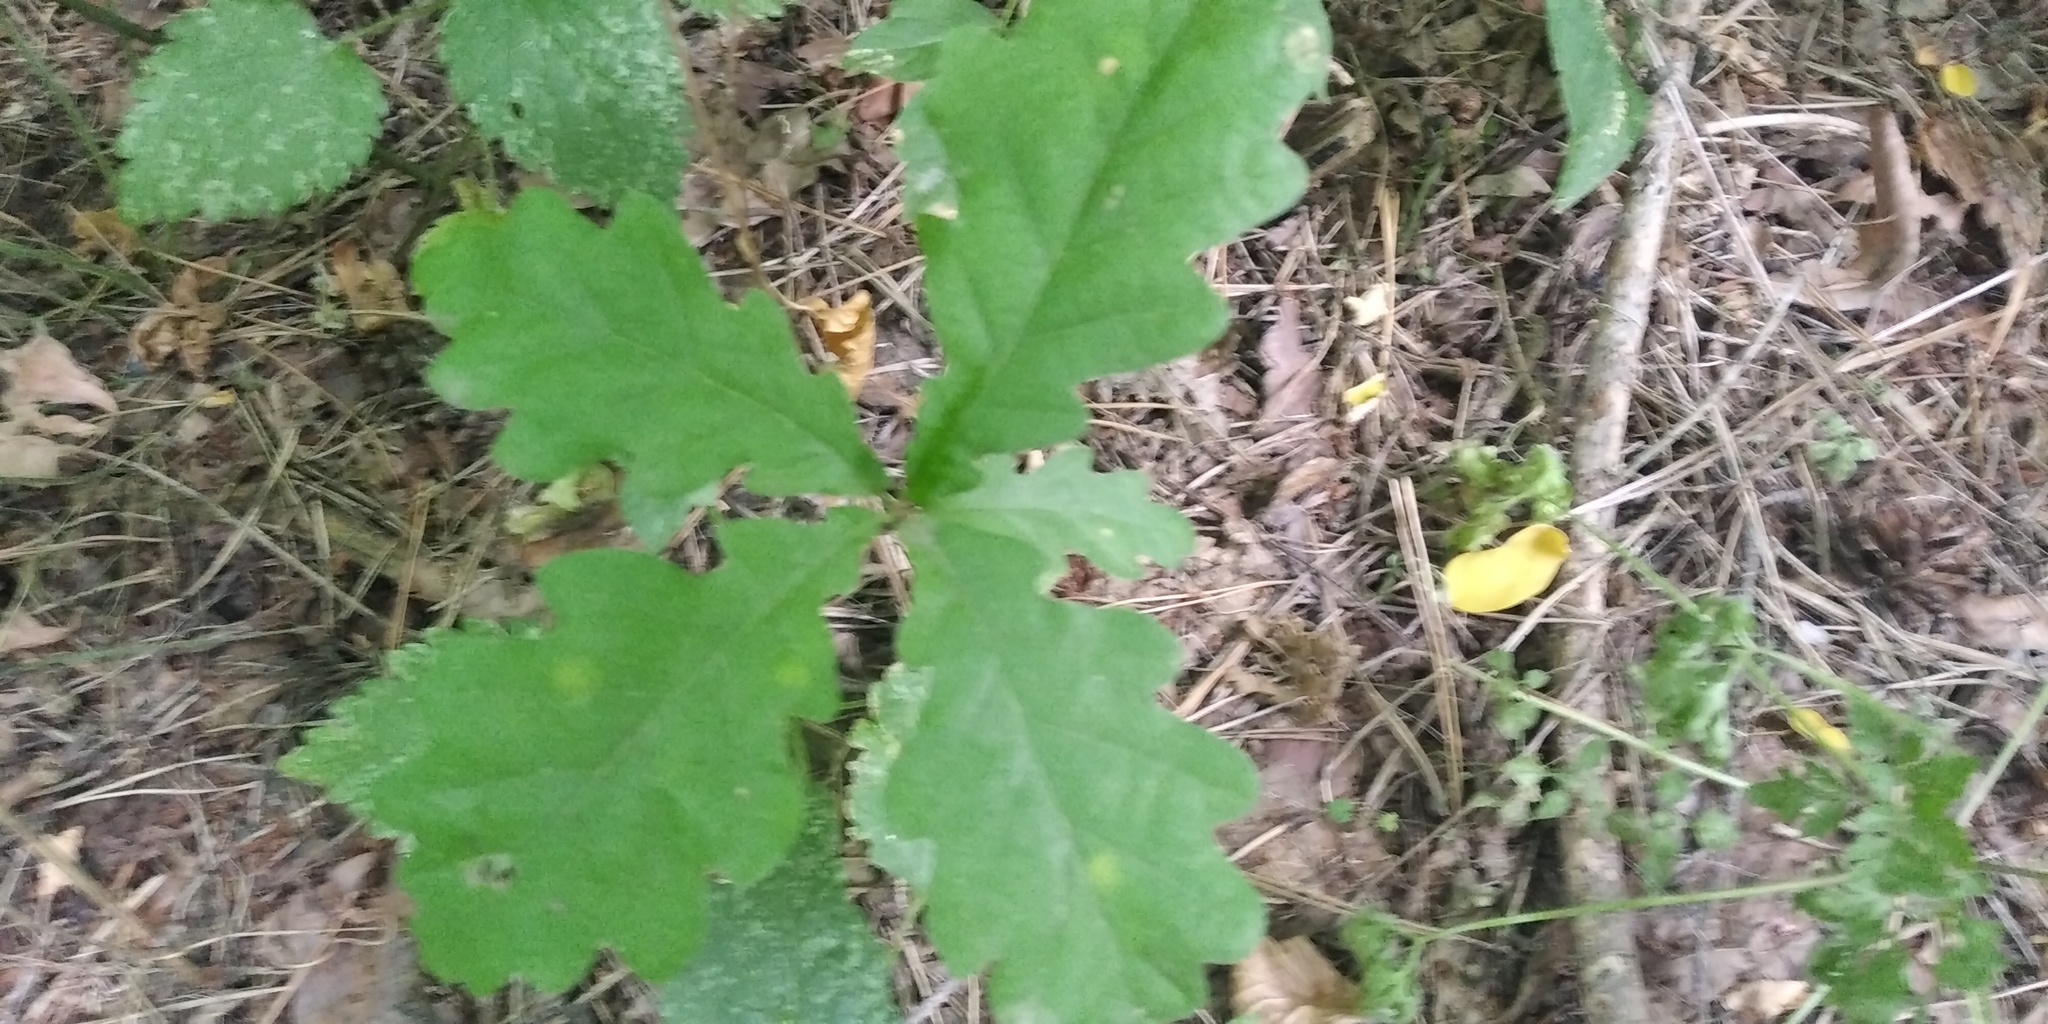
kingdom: Plantae
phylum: Tracheophyta
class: Magnoliopsida
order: Fagales
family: Fagaceae
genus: Quercus
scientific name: Quercus robur
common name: Pedunculate oak
